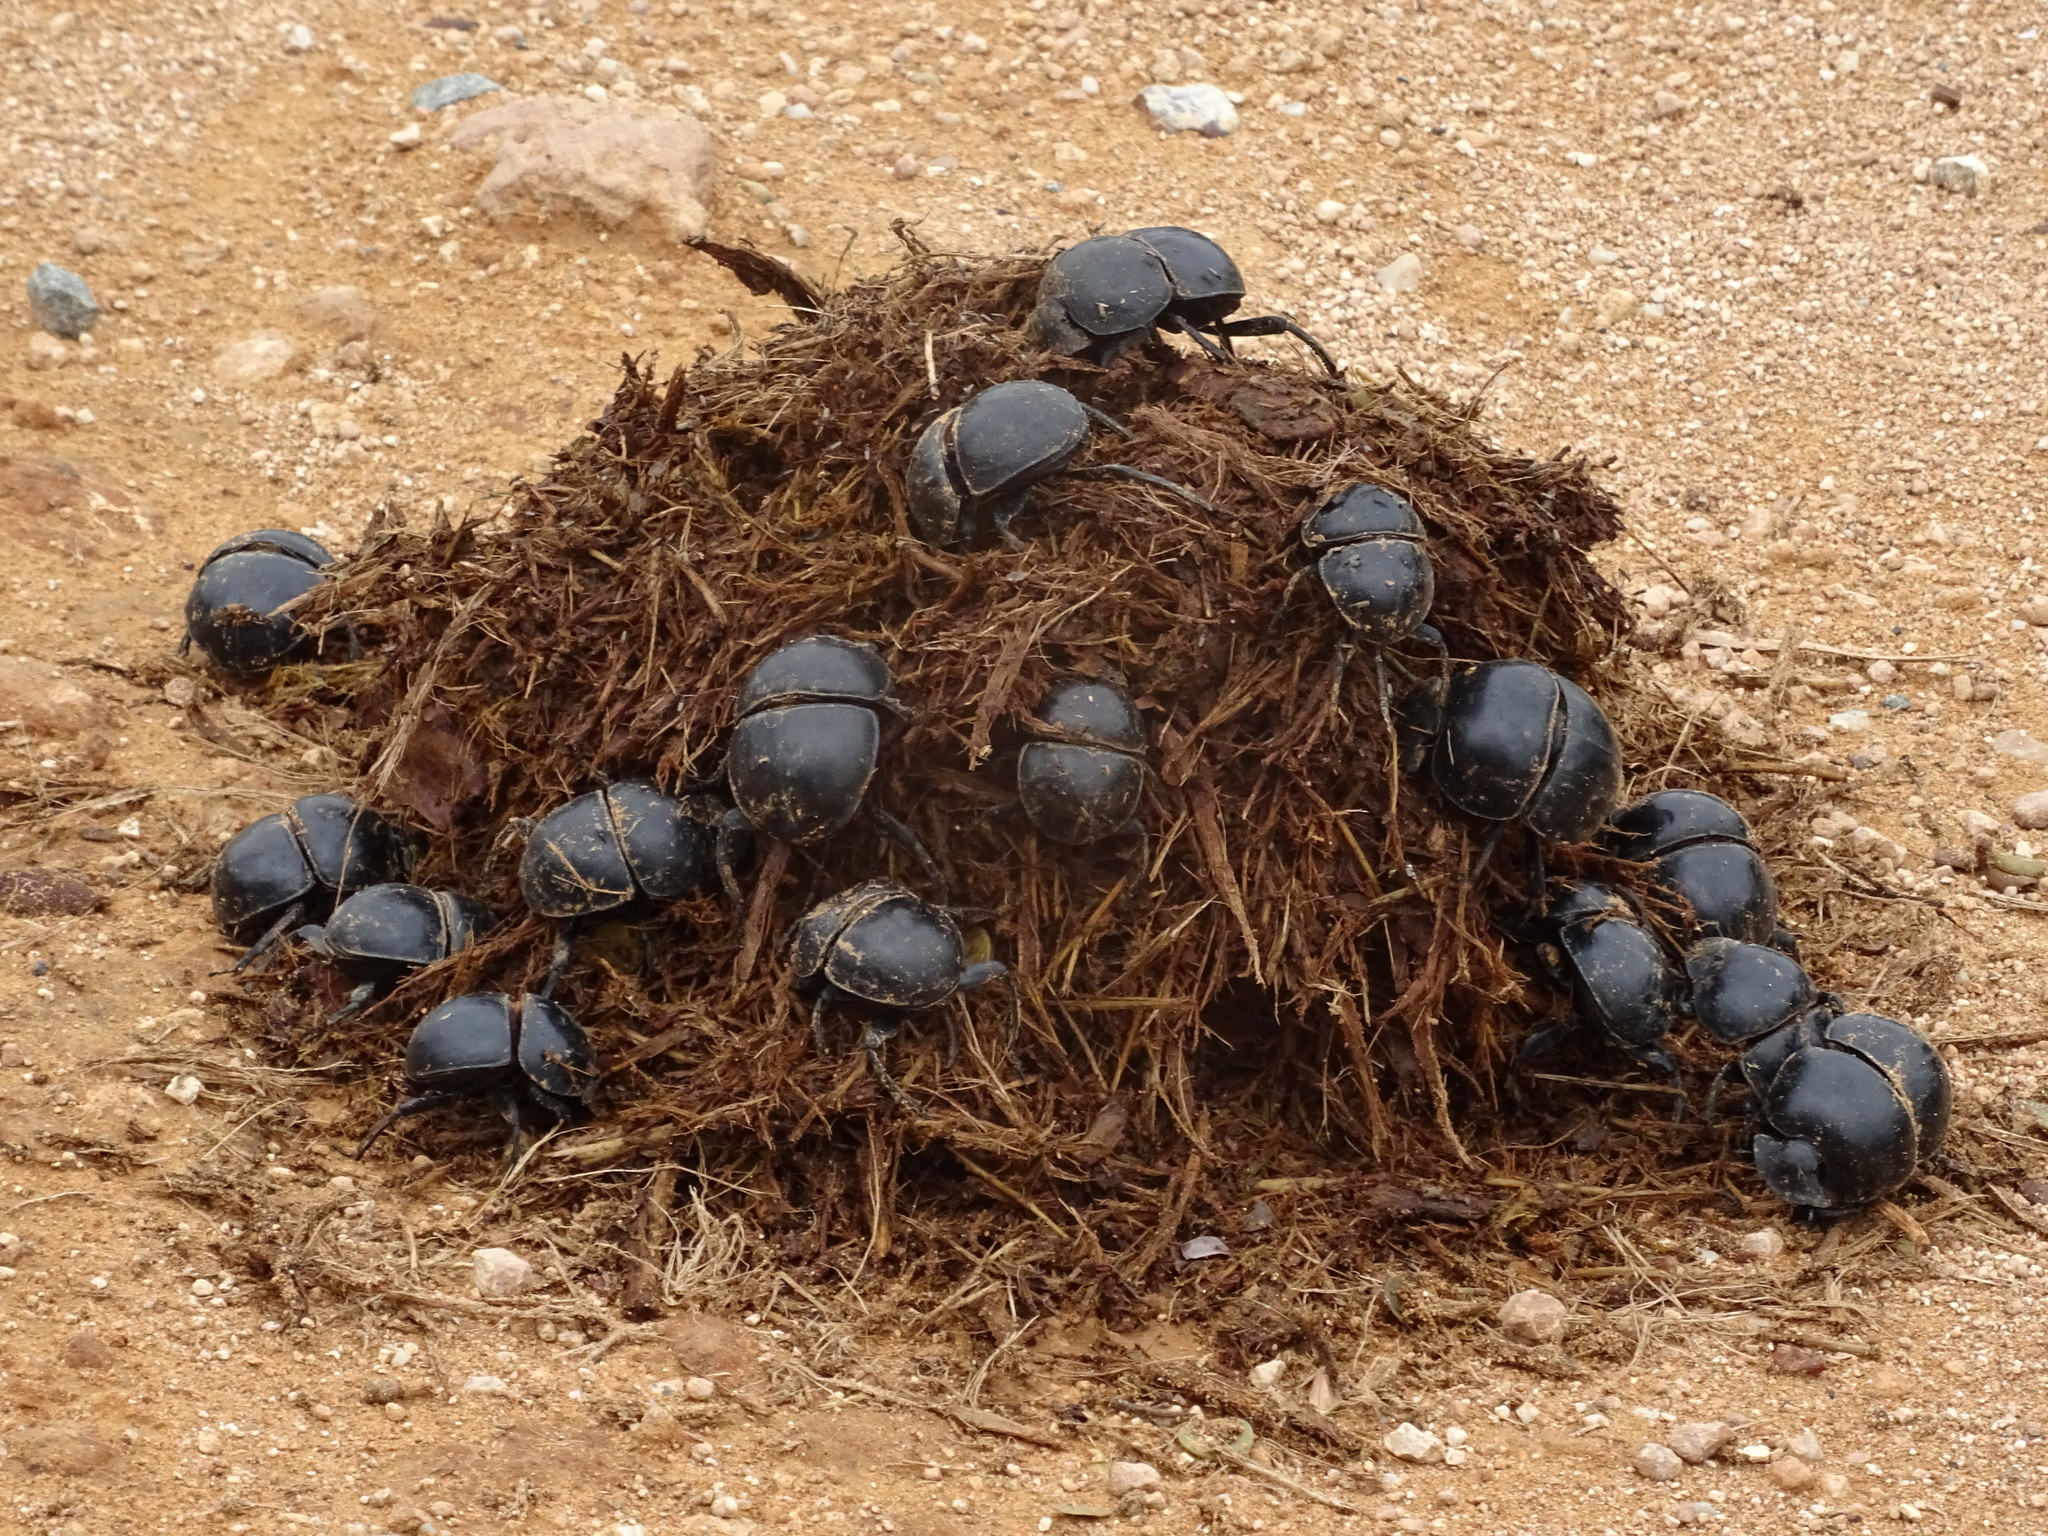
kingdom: Animalia
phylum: Arthropoda
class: Insecta
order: Coleoptera
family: Scarabaeidae
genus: Circellium
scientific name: Circellium bacchus
